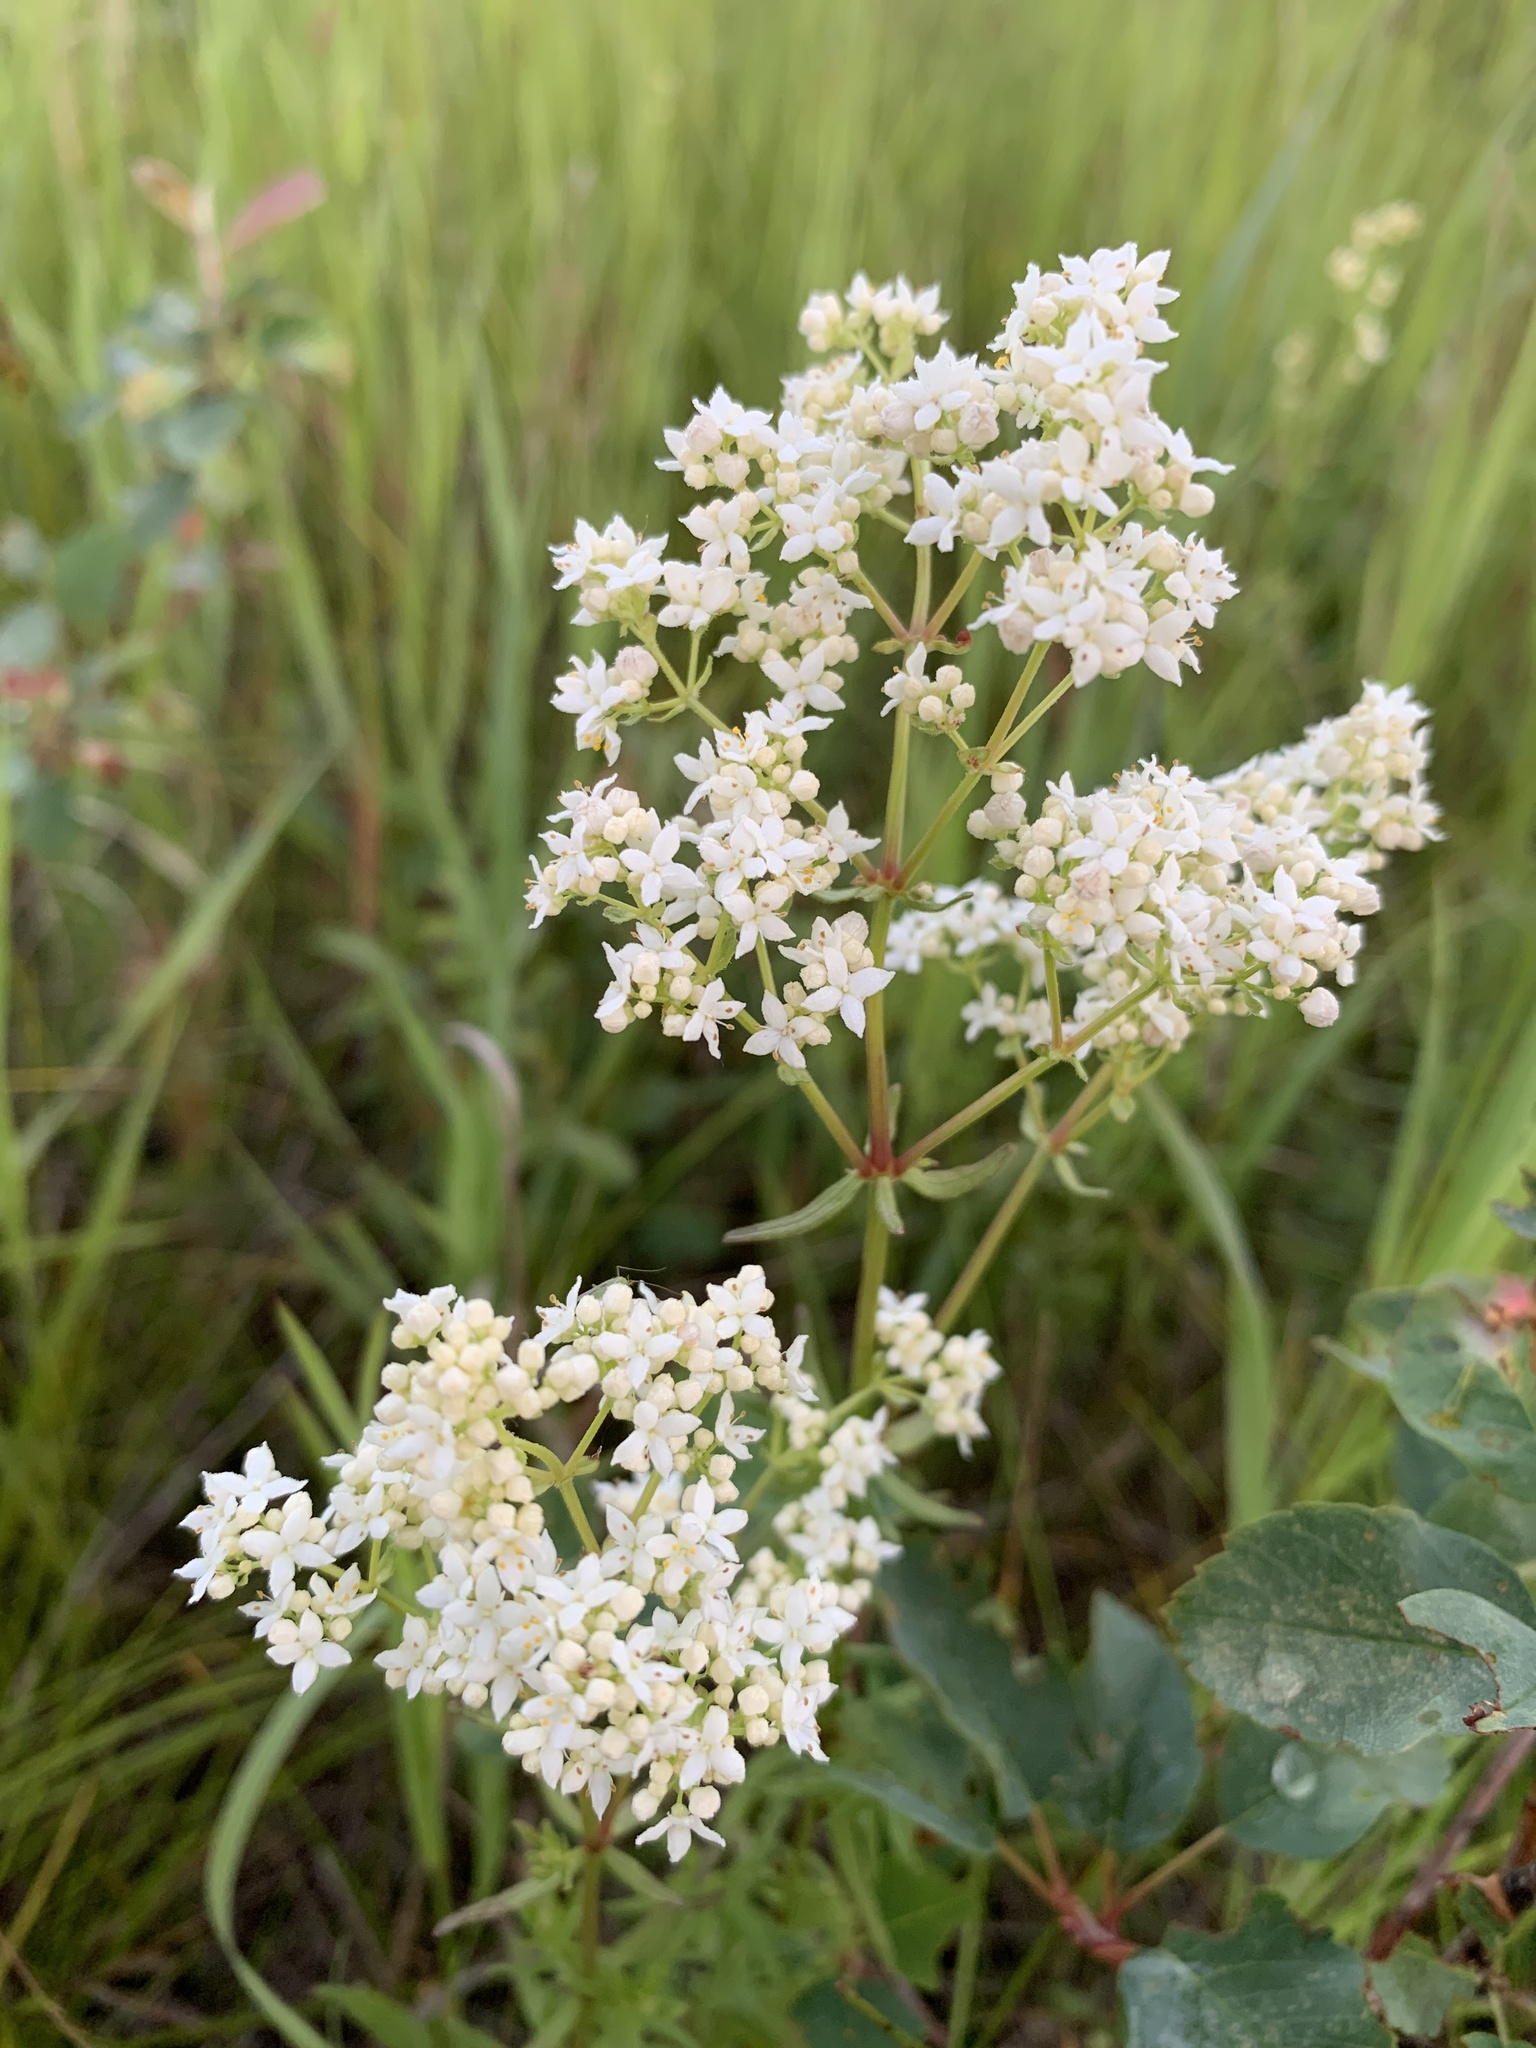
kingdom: Plantae
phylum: Tracheophyta
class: Magnoliopsida
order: Gentianales
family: Rubiaceae
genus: Galium
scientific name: Galium boreale
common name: Northern bedstraw
